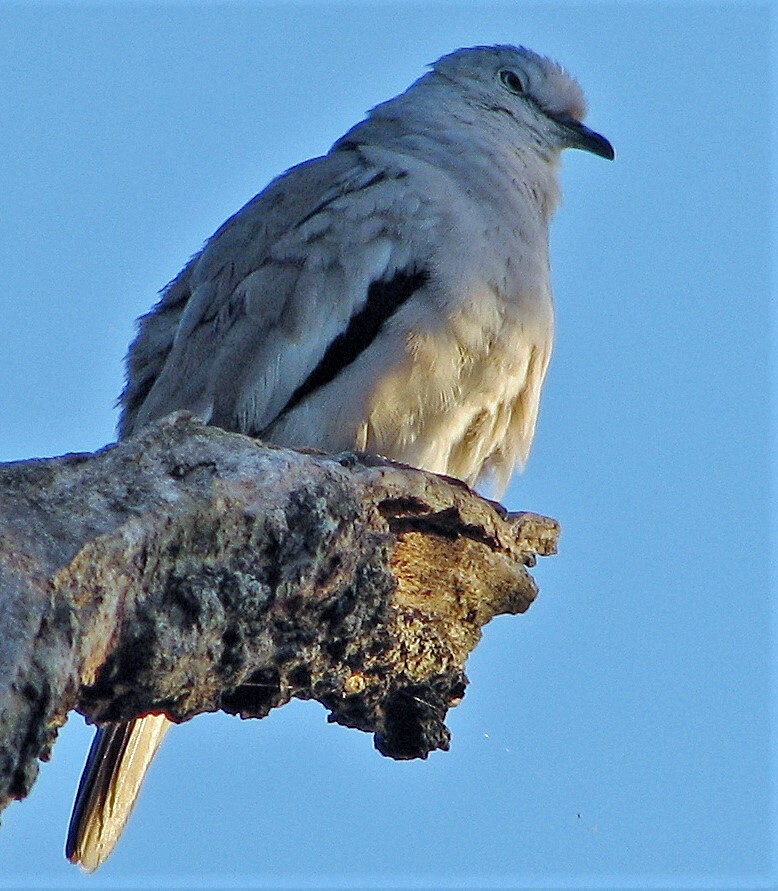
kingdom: Animalia
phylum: Chordata
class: Aves
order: Columbiformes
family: Columbidae
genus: Columbina
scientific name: Columbina picui
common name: Picui ground dove
